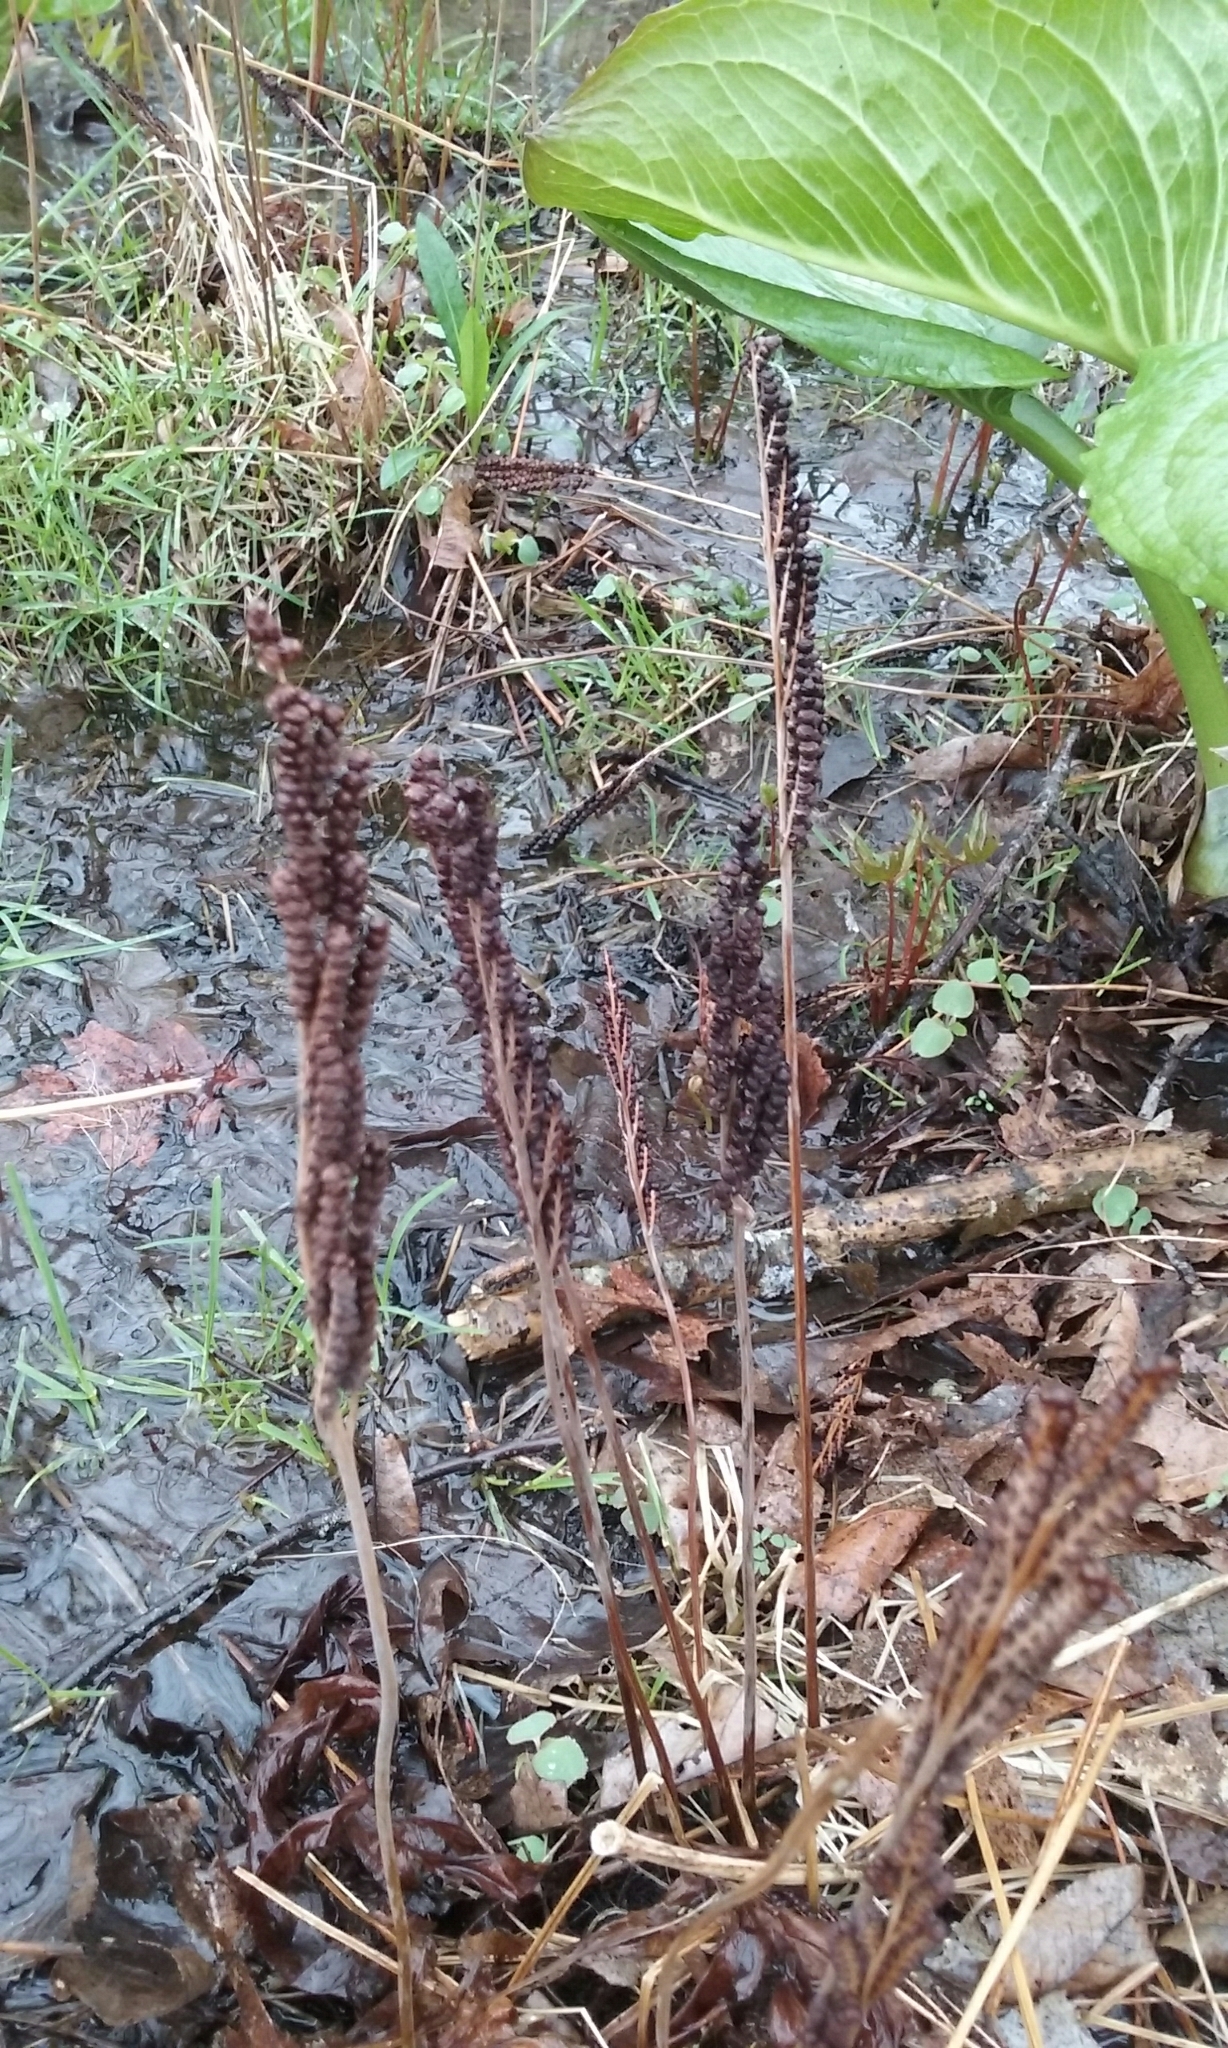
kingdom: Plantae
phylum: Tracheophyta
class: Polypodiopsida
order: Polypodiales
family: Onocleaceae
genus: Onoclea
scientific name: Onoclea sensibilis
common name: Sensitive fern
